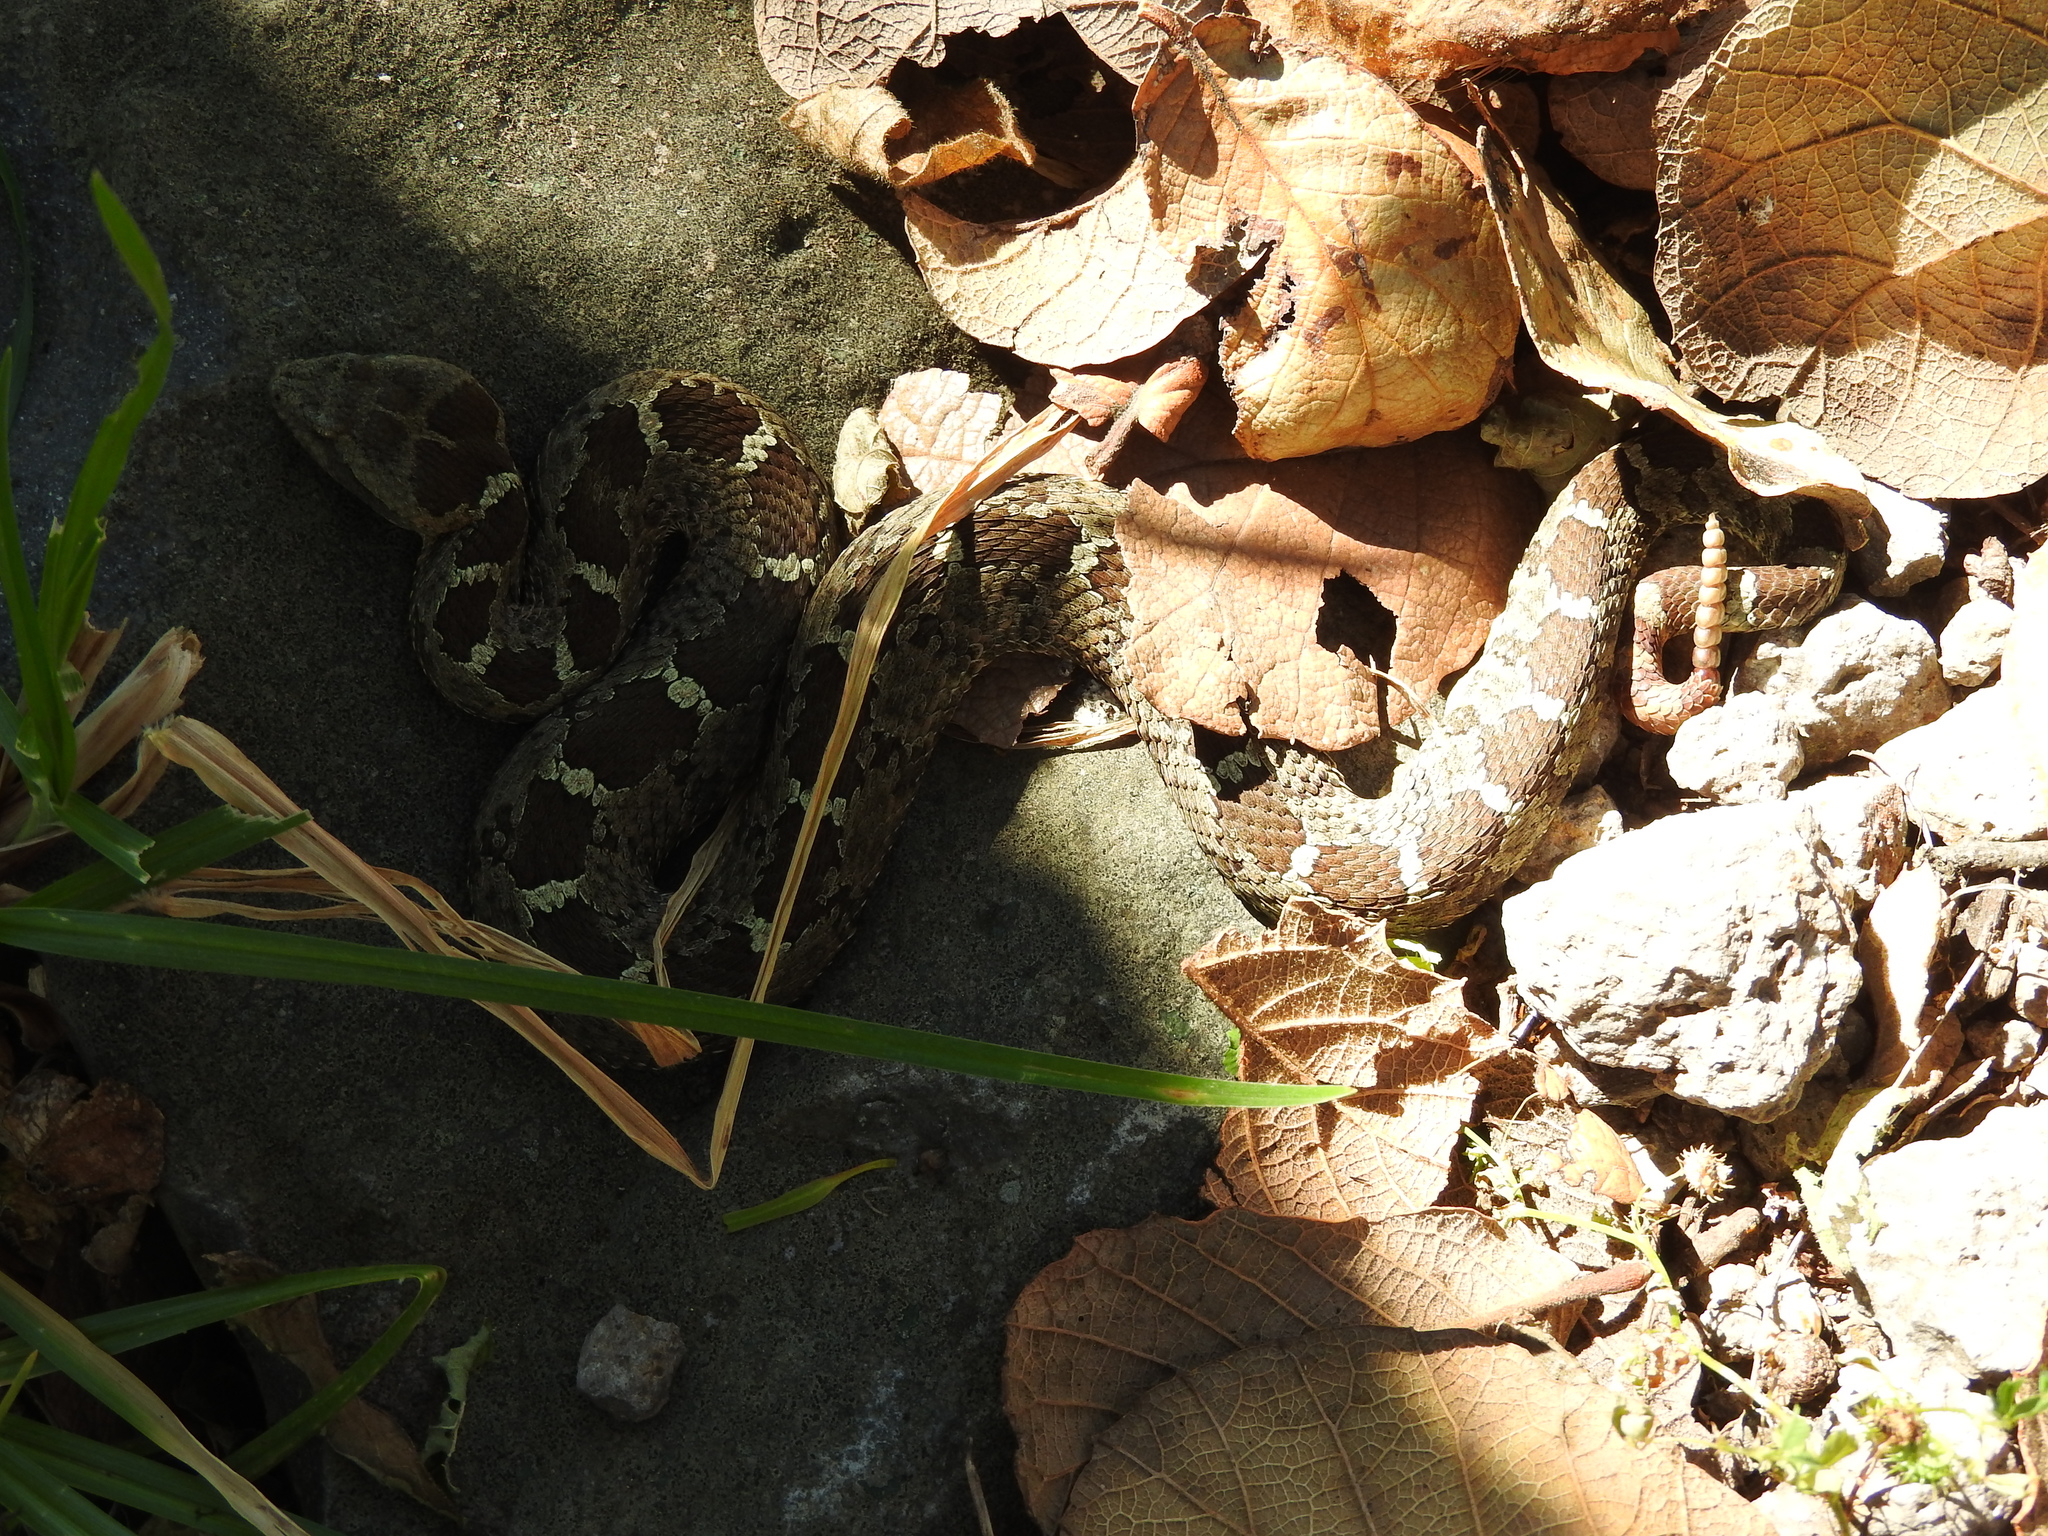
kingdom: Animalia
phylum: Chordata
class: Squamata
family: Viperidae
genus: Crotalus
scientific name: Crotalus aquilus
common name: Queretaran dusky rattlesnake
